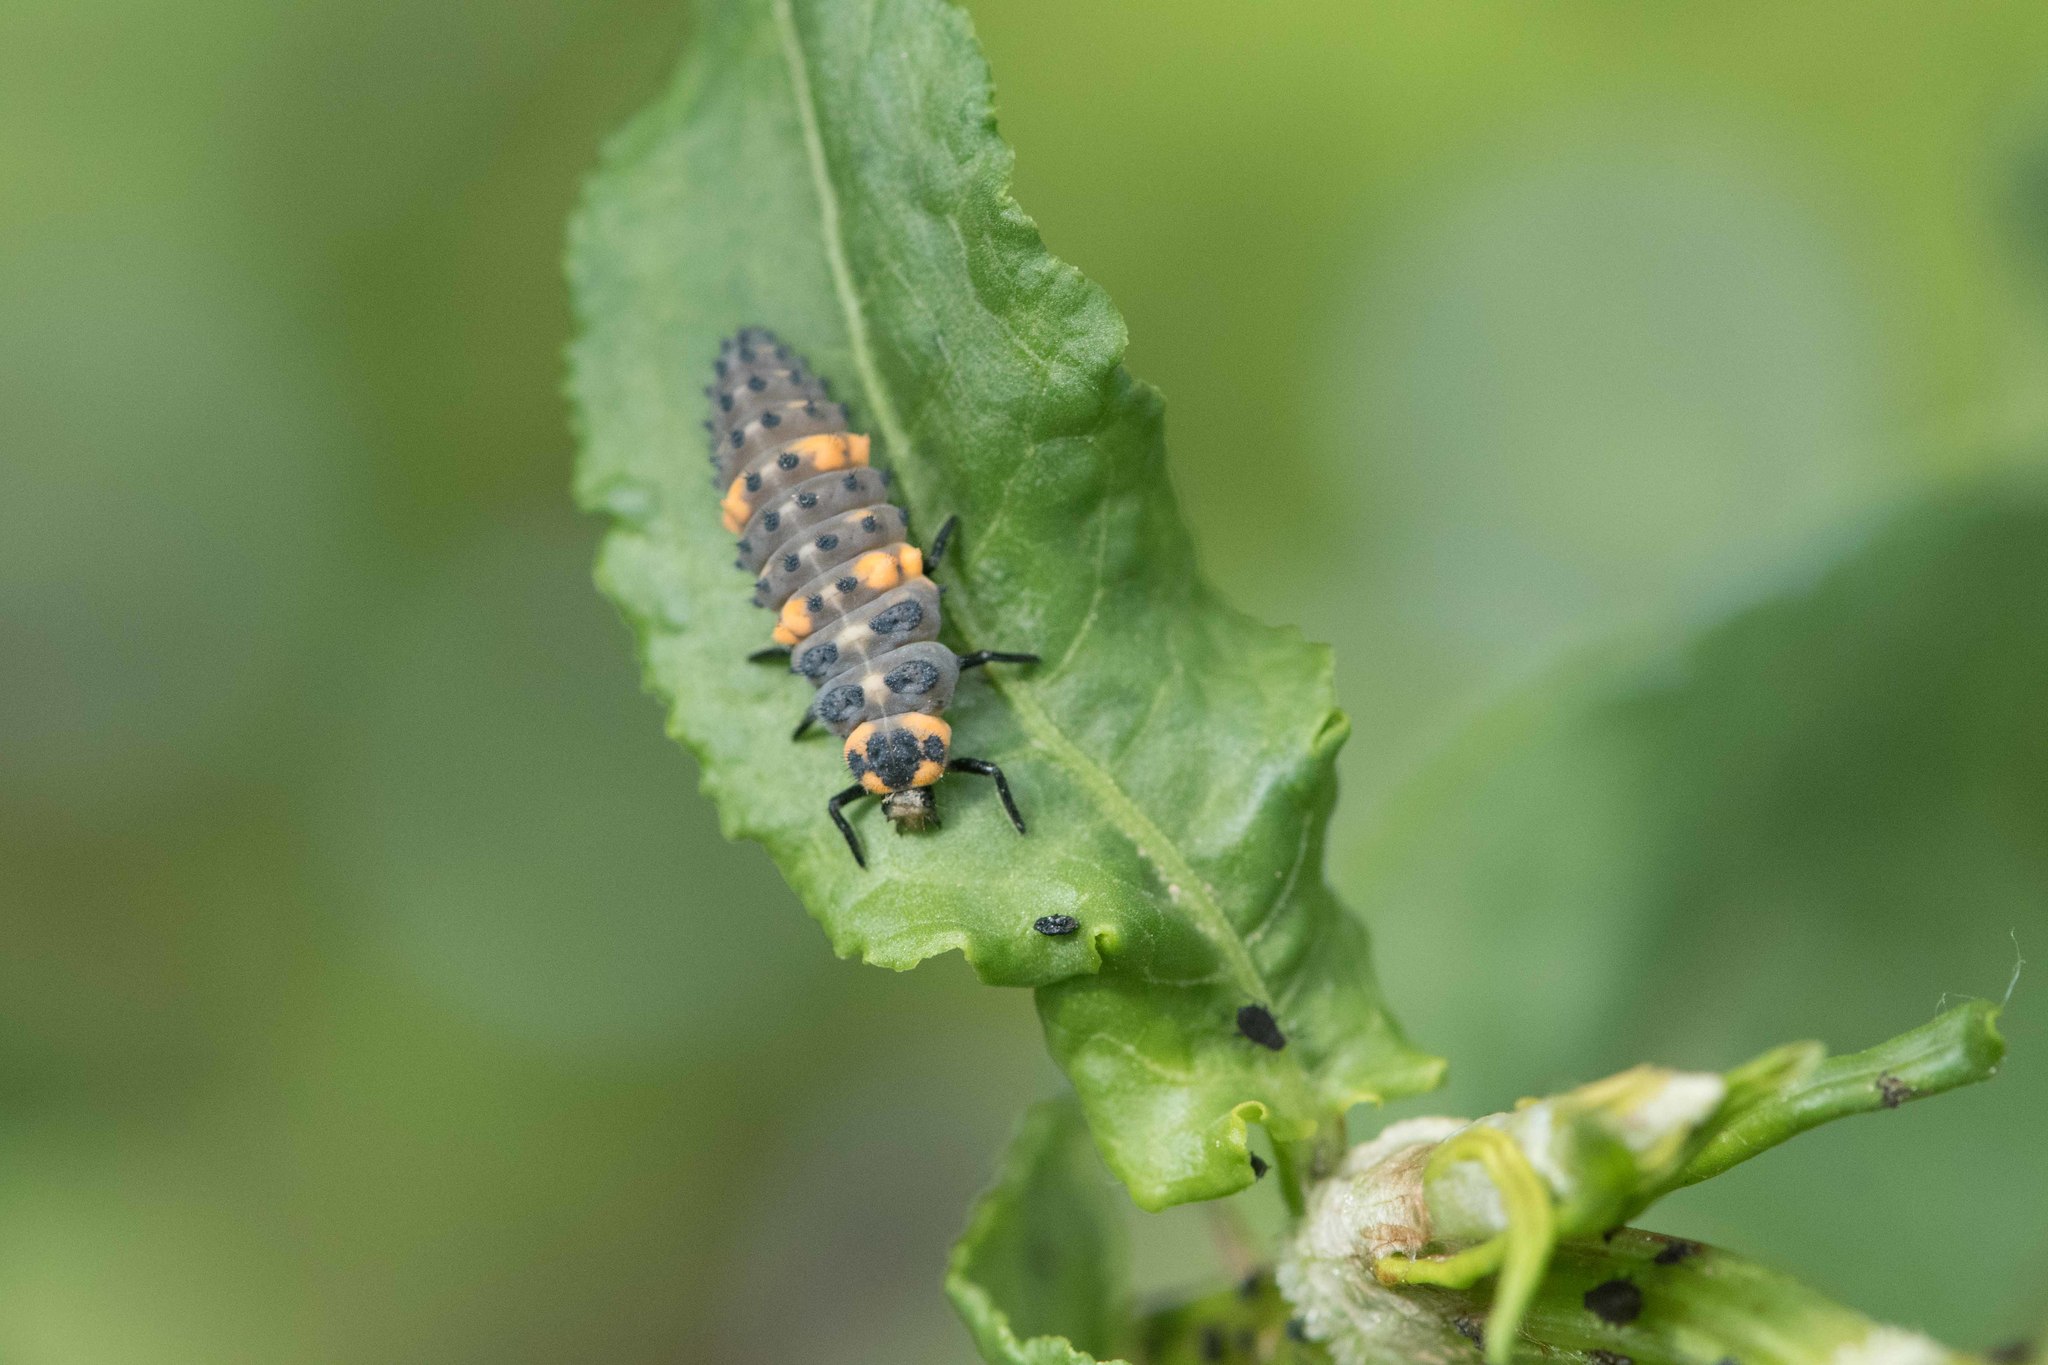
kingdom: Animalia
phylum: Arthropoda
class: Insecta
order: Coleoptera
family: Coccinellidae
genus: Coccinella
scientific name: Coccinella septempunctata
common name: Sevenspotted lady beetle
